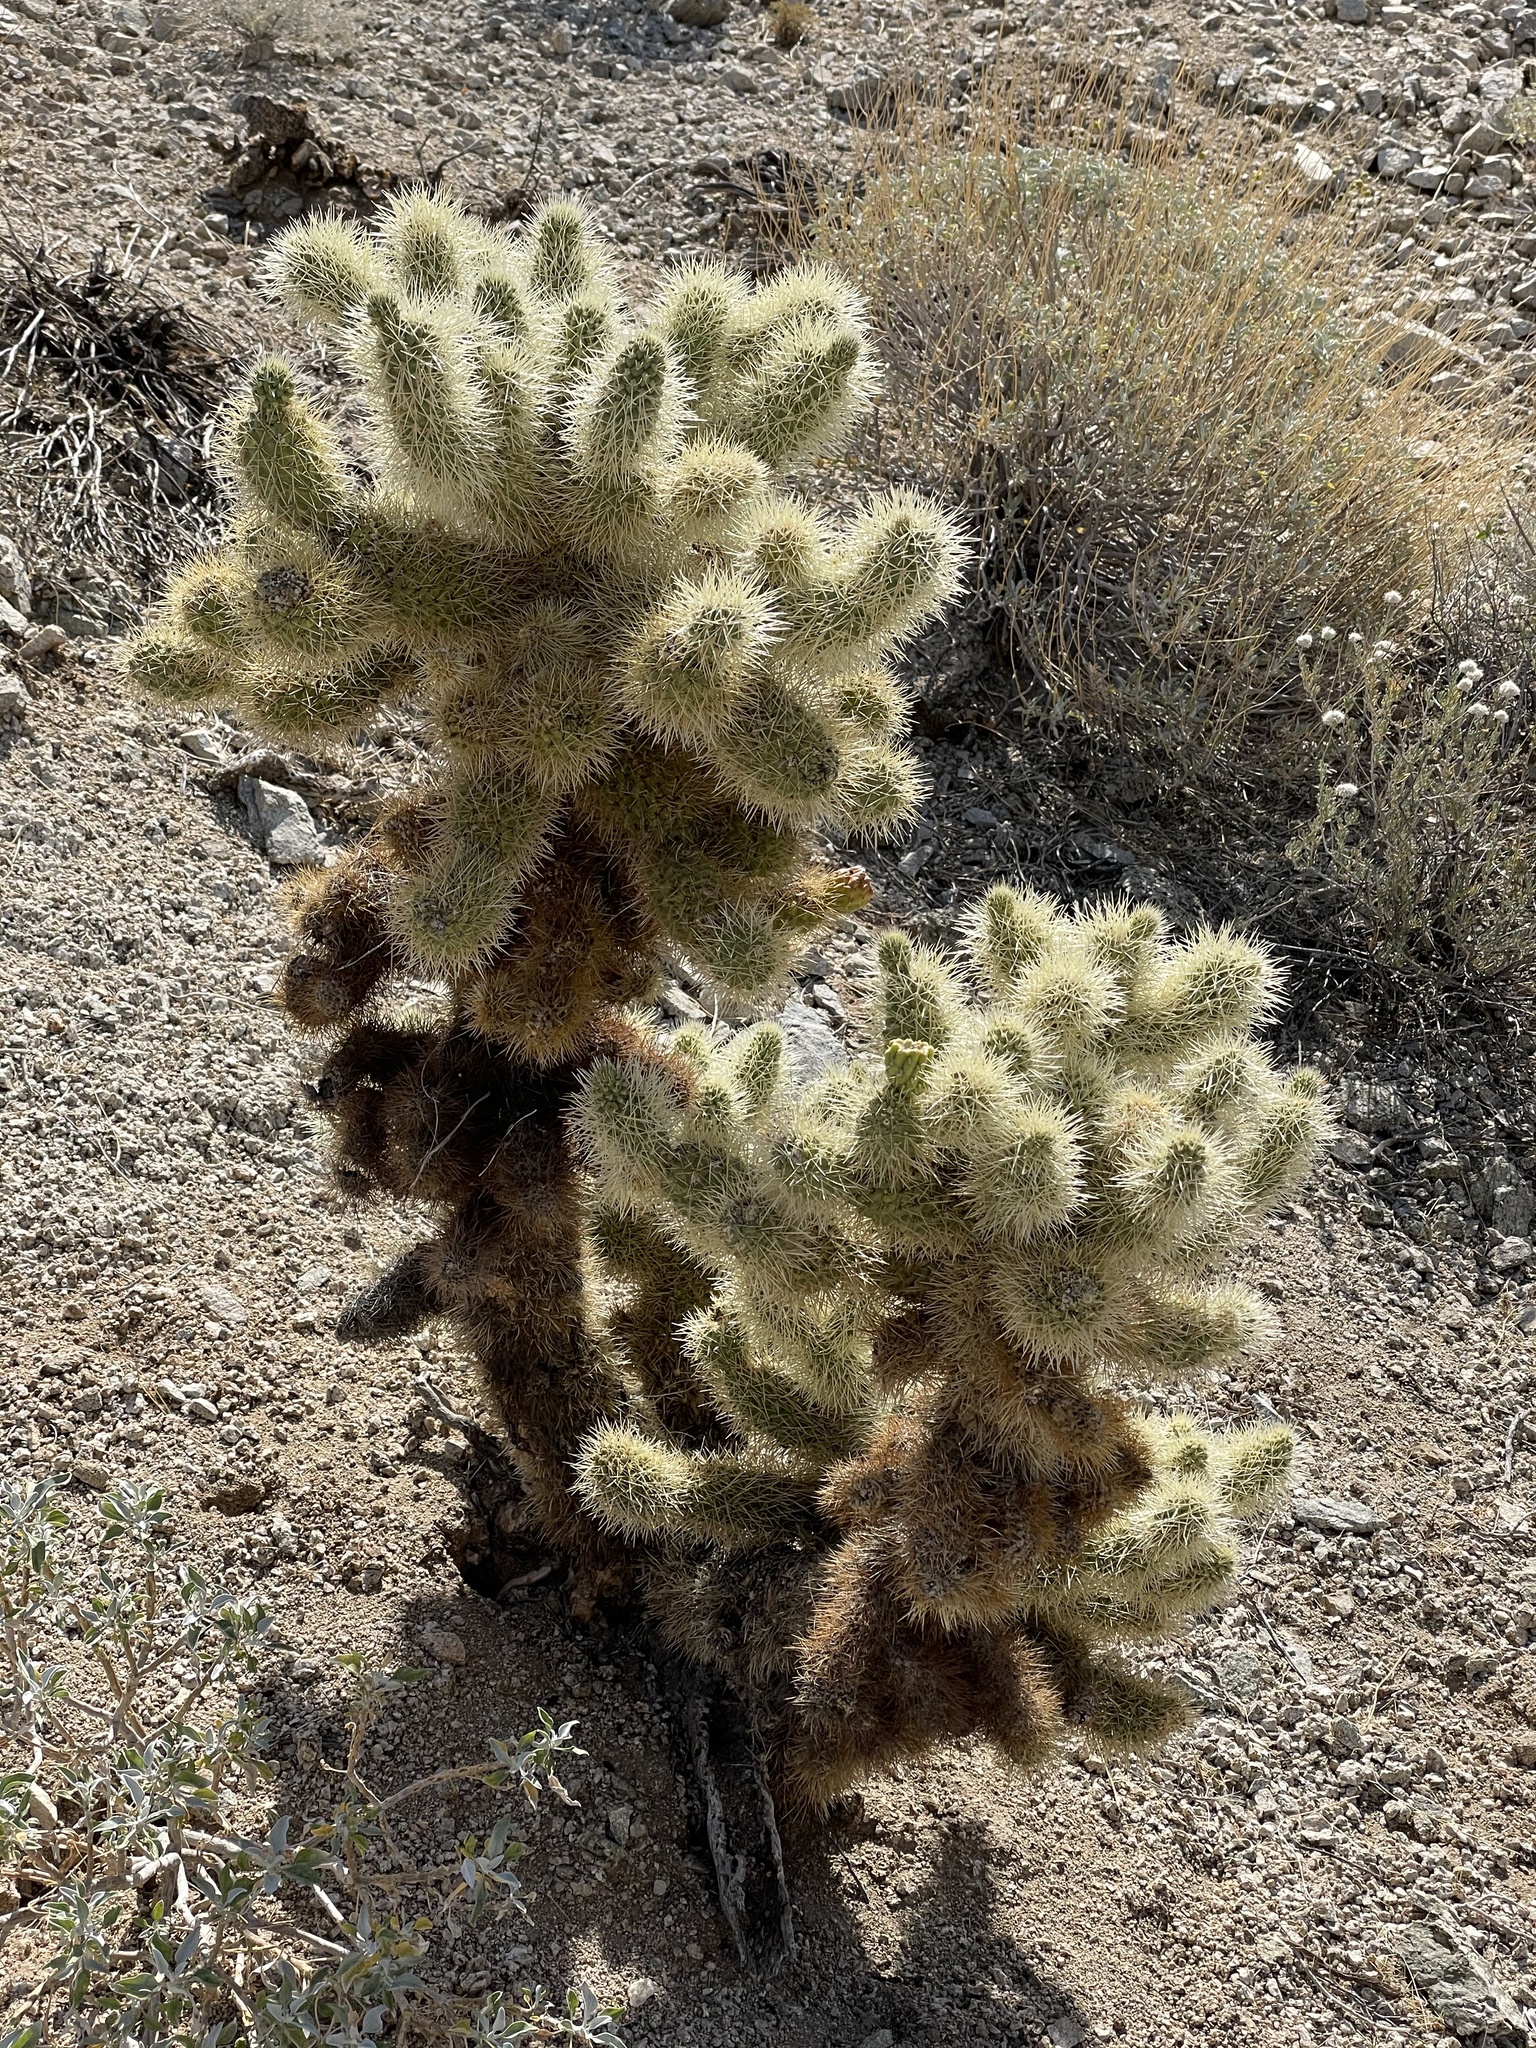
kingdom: Plantae
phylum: Tracheophyta
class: Magnoliopsida
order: Caryophyllales
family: Cactaceae
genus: Cylindropuntia
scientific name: Cylindropuntia fosbergii
